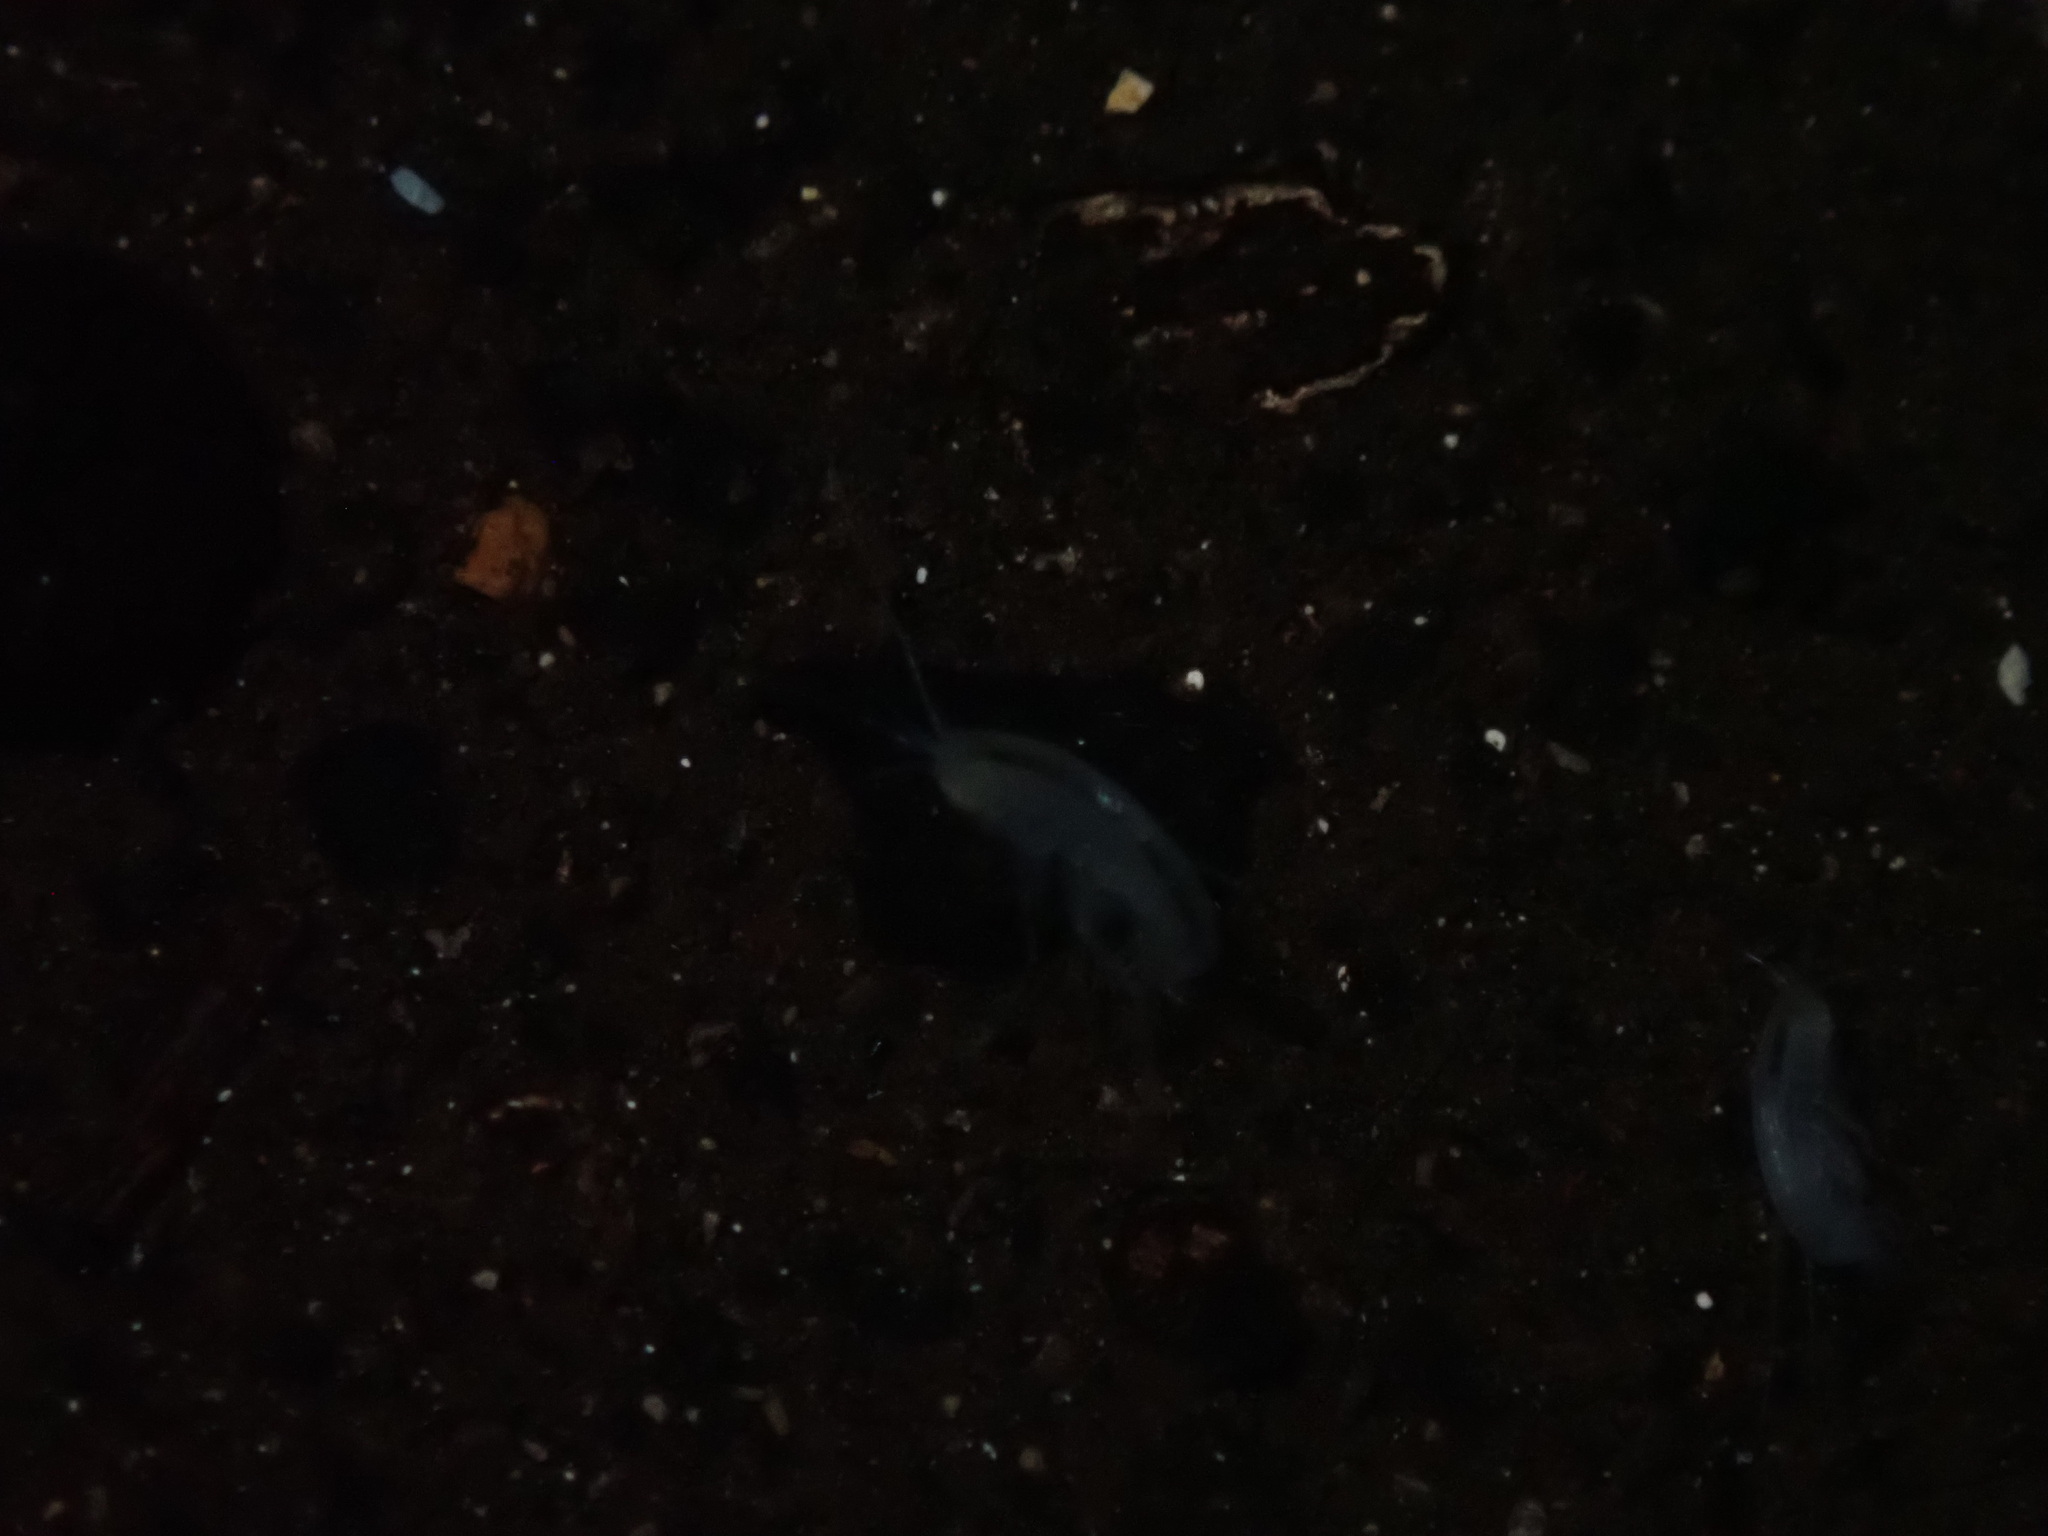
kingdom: Animalia
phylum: Arthropoda
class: Malacostraca
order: Amphipoda
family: Hadziidae
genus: Bahadzia
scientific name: Bahadzia caymanensis
